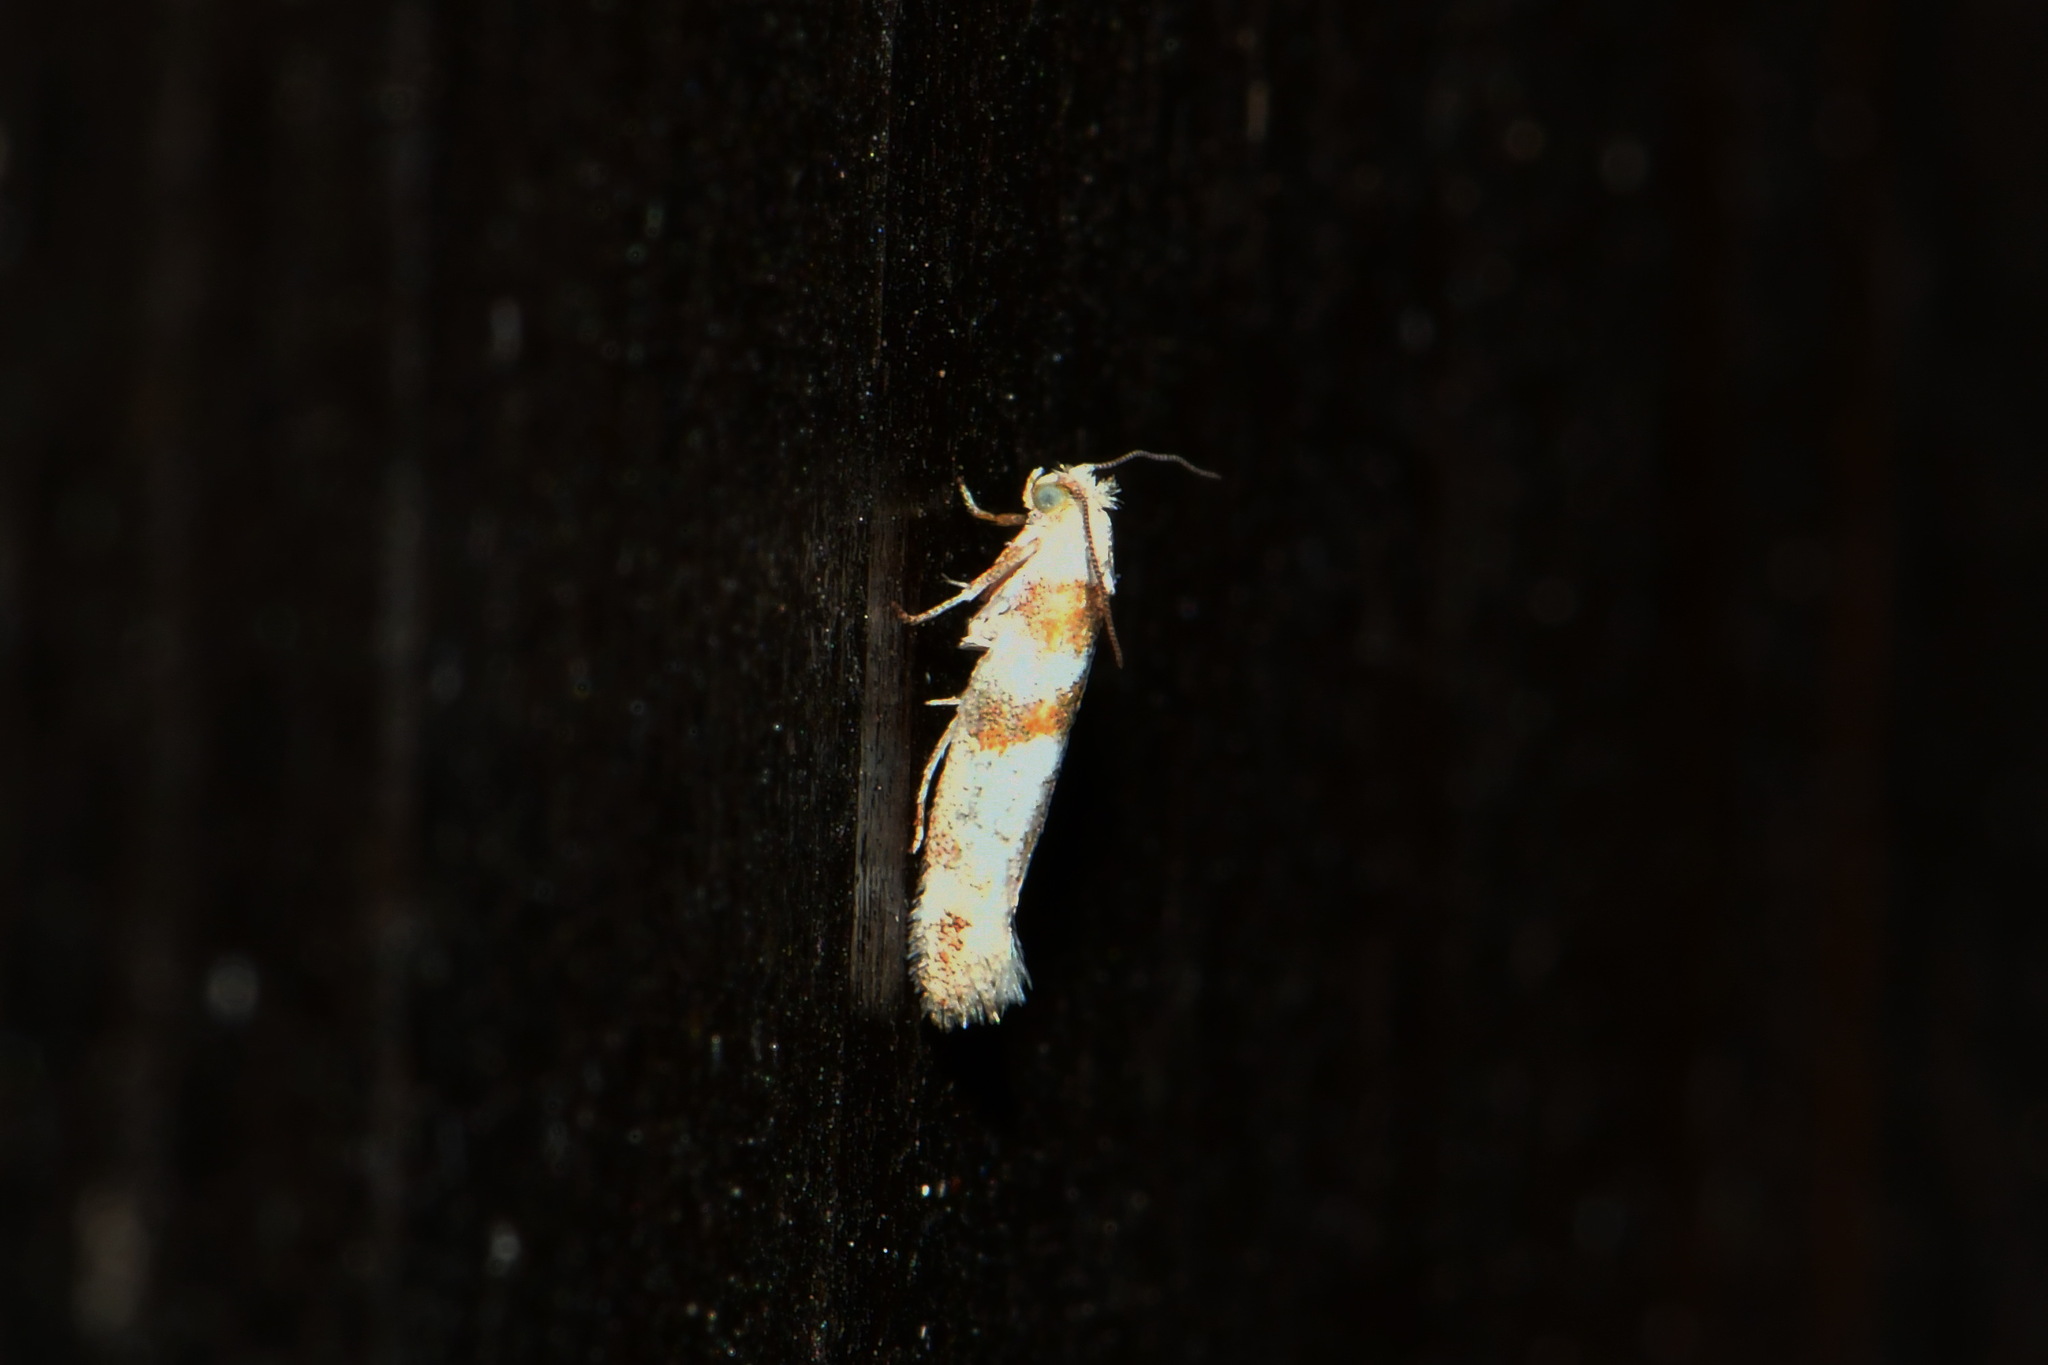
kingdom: Animalia
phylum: Arthropoda
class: Insecta
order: Lepidoptera
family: Yponomeutidae
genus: Cedestis
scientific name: Cedestis gysseleniella
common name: Gold pine ermel
